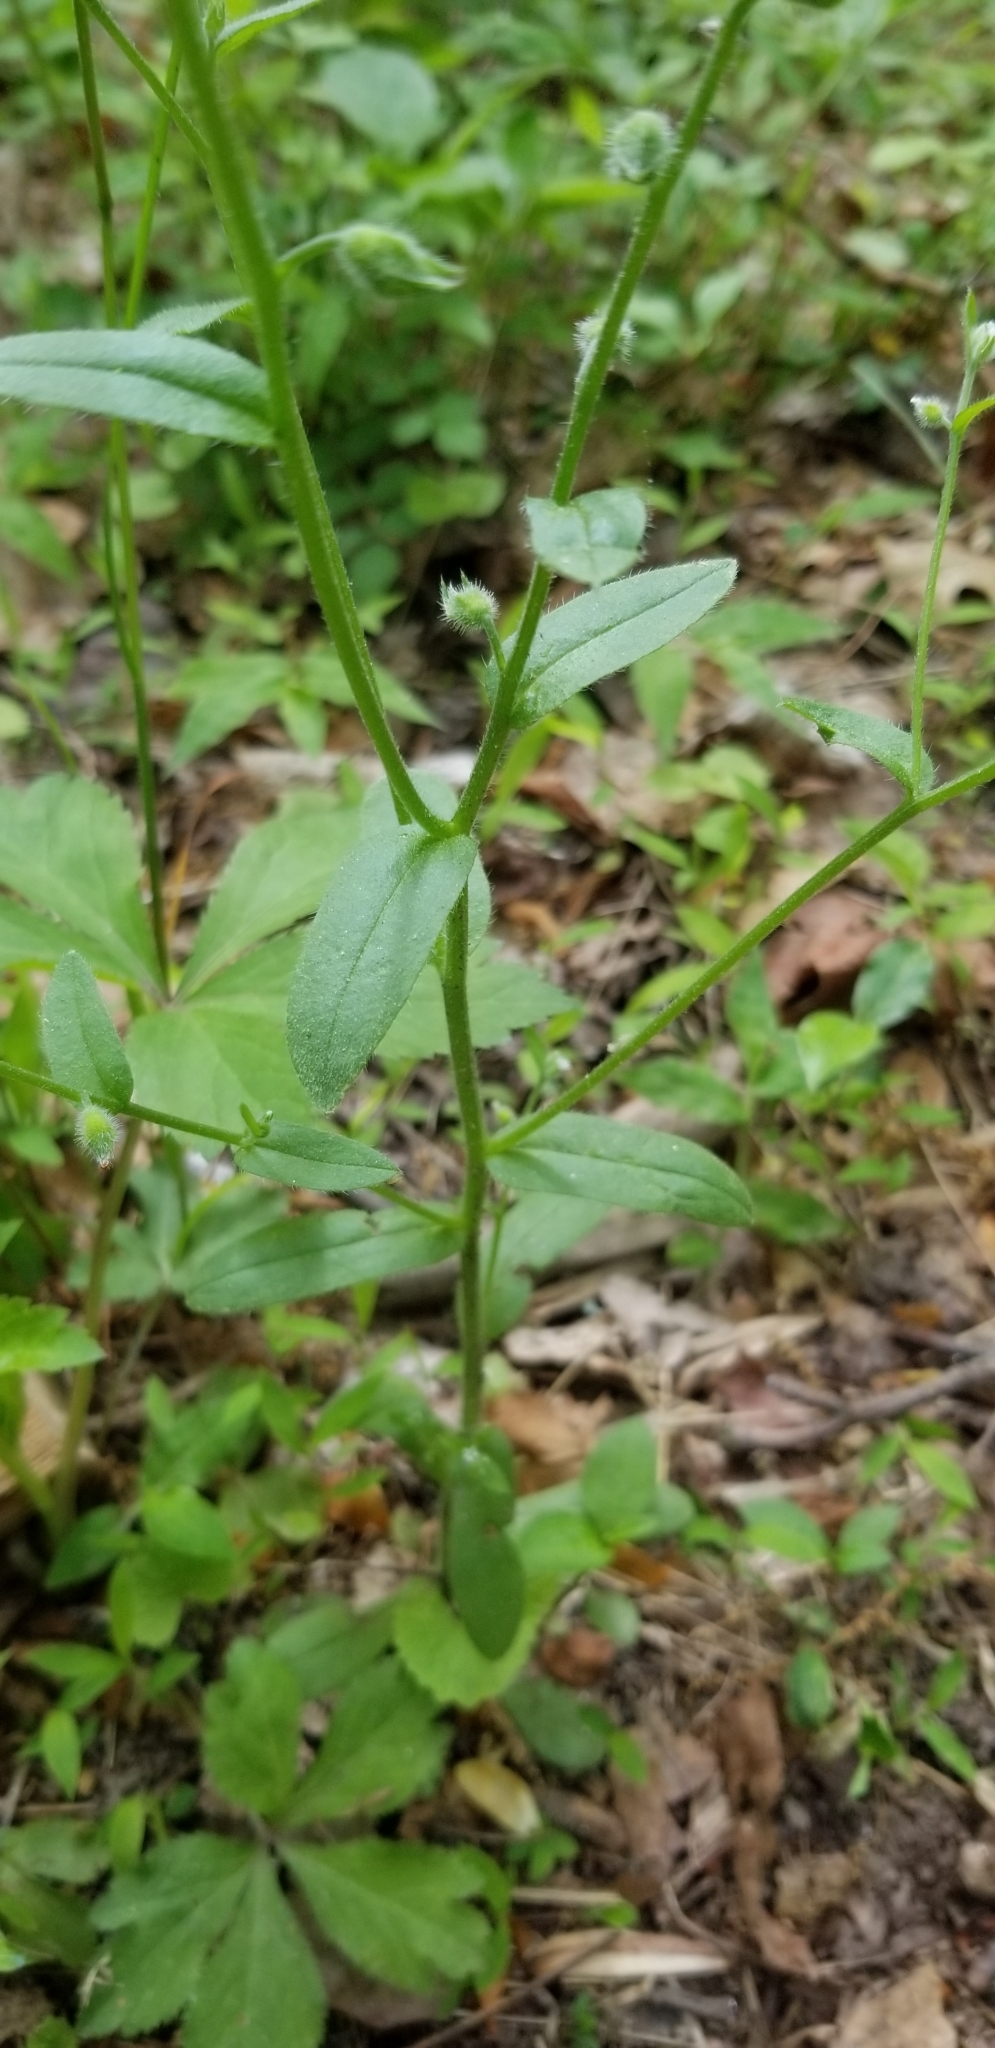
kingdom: Plantae
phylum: Tracheophyta
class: Magnoliopsida
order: Boraginales
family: Boraginaceae
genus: Myosotis
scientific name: Myosotis macrosperma
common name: Large-seed forget-me-not
